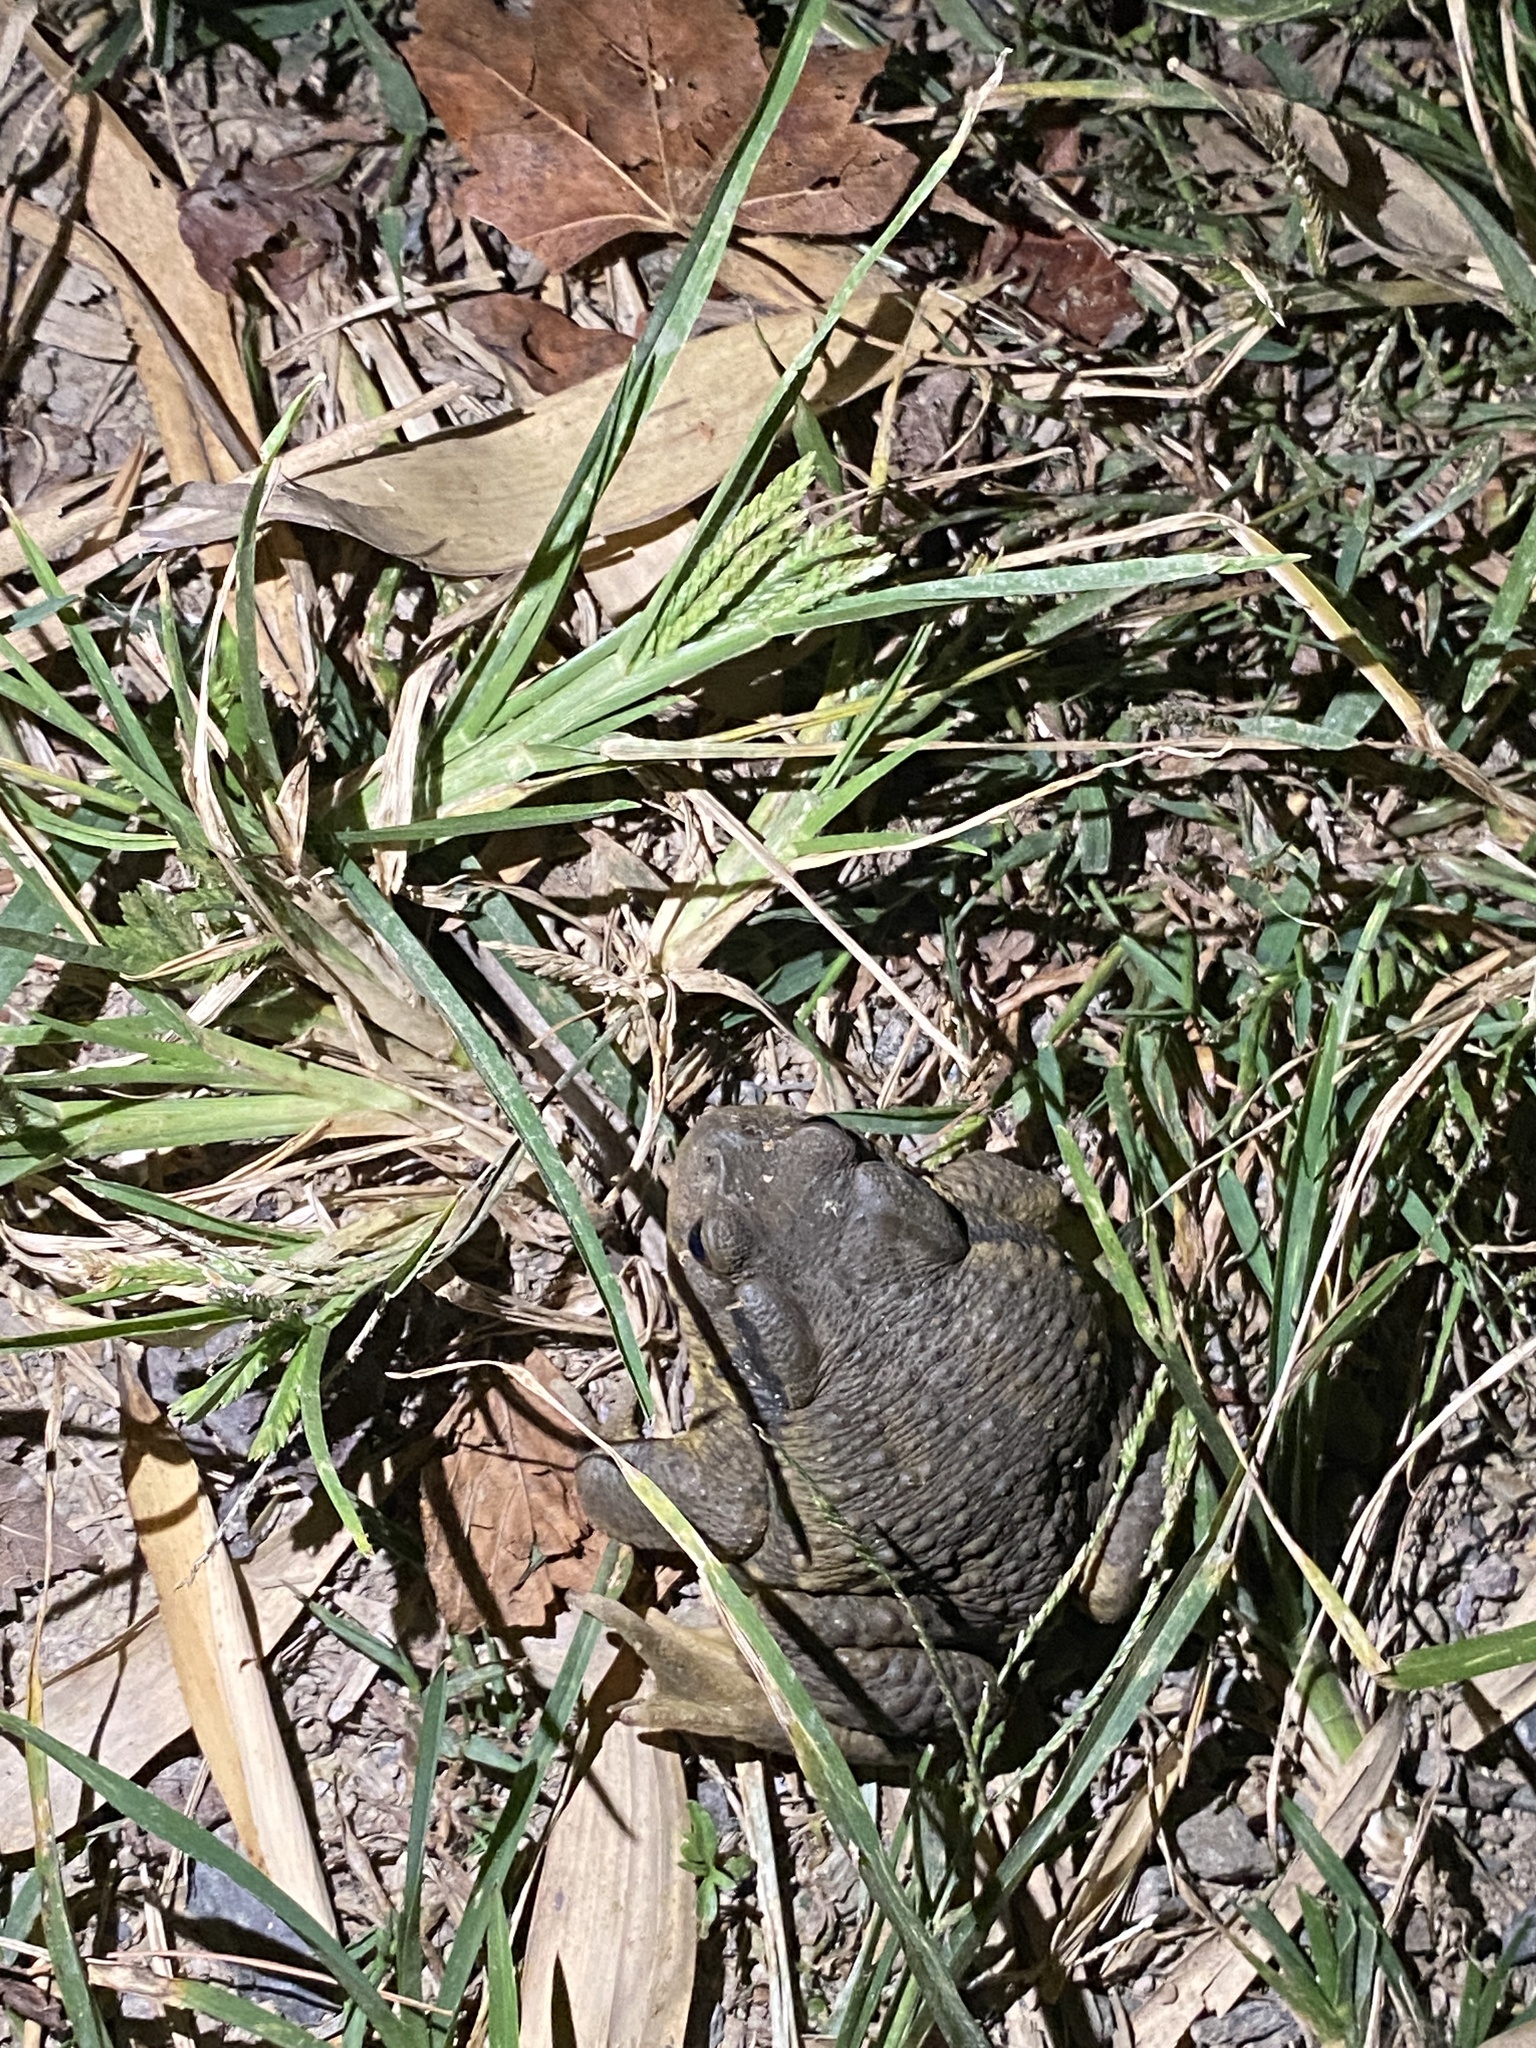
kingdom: Animalia
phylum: Chordata
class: Amphibia
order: Anura
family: Bufonidae
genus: Bufo
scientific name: Bufo bankorensis
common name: Bankor toad
